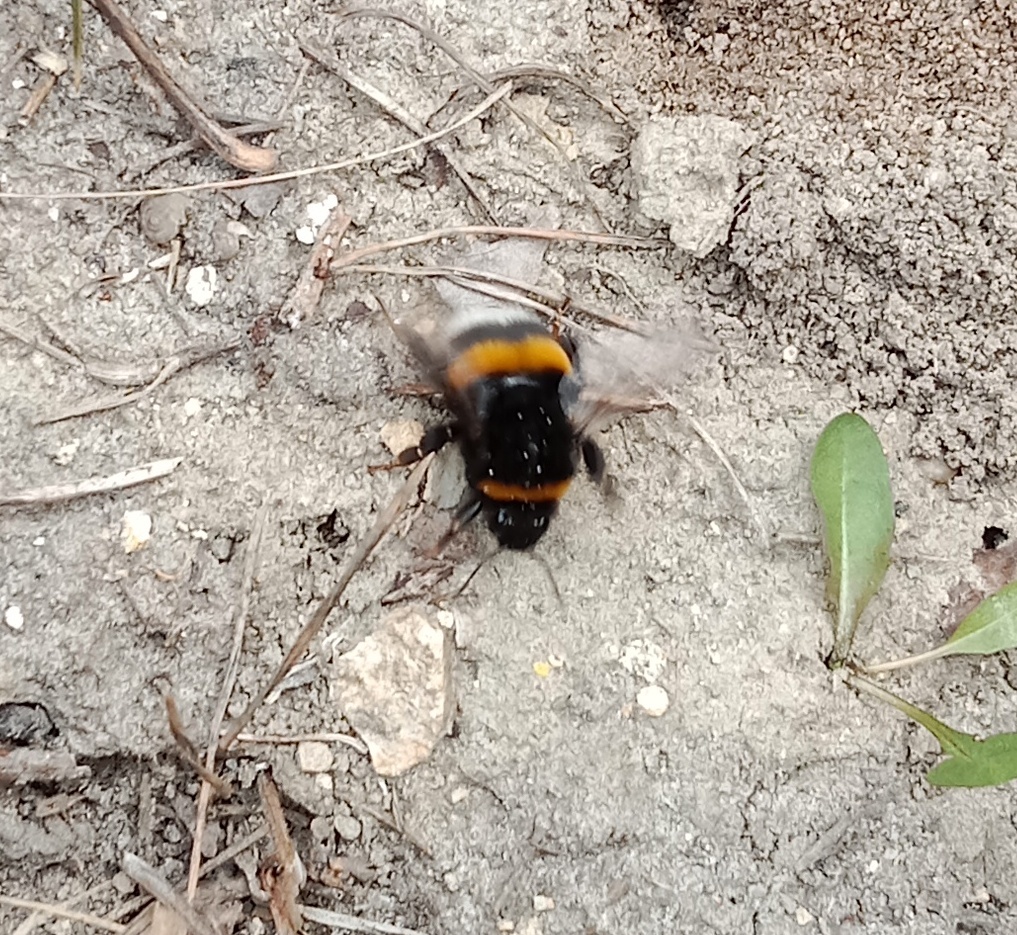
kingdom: Animalia
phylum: Arthropoda
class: Insecta
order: Hymenoptera
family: Apidae
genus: Bombus
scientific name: Bombus terrestris
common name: Buff-tailed bumblebee
